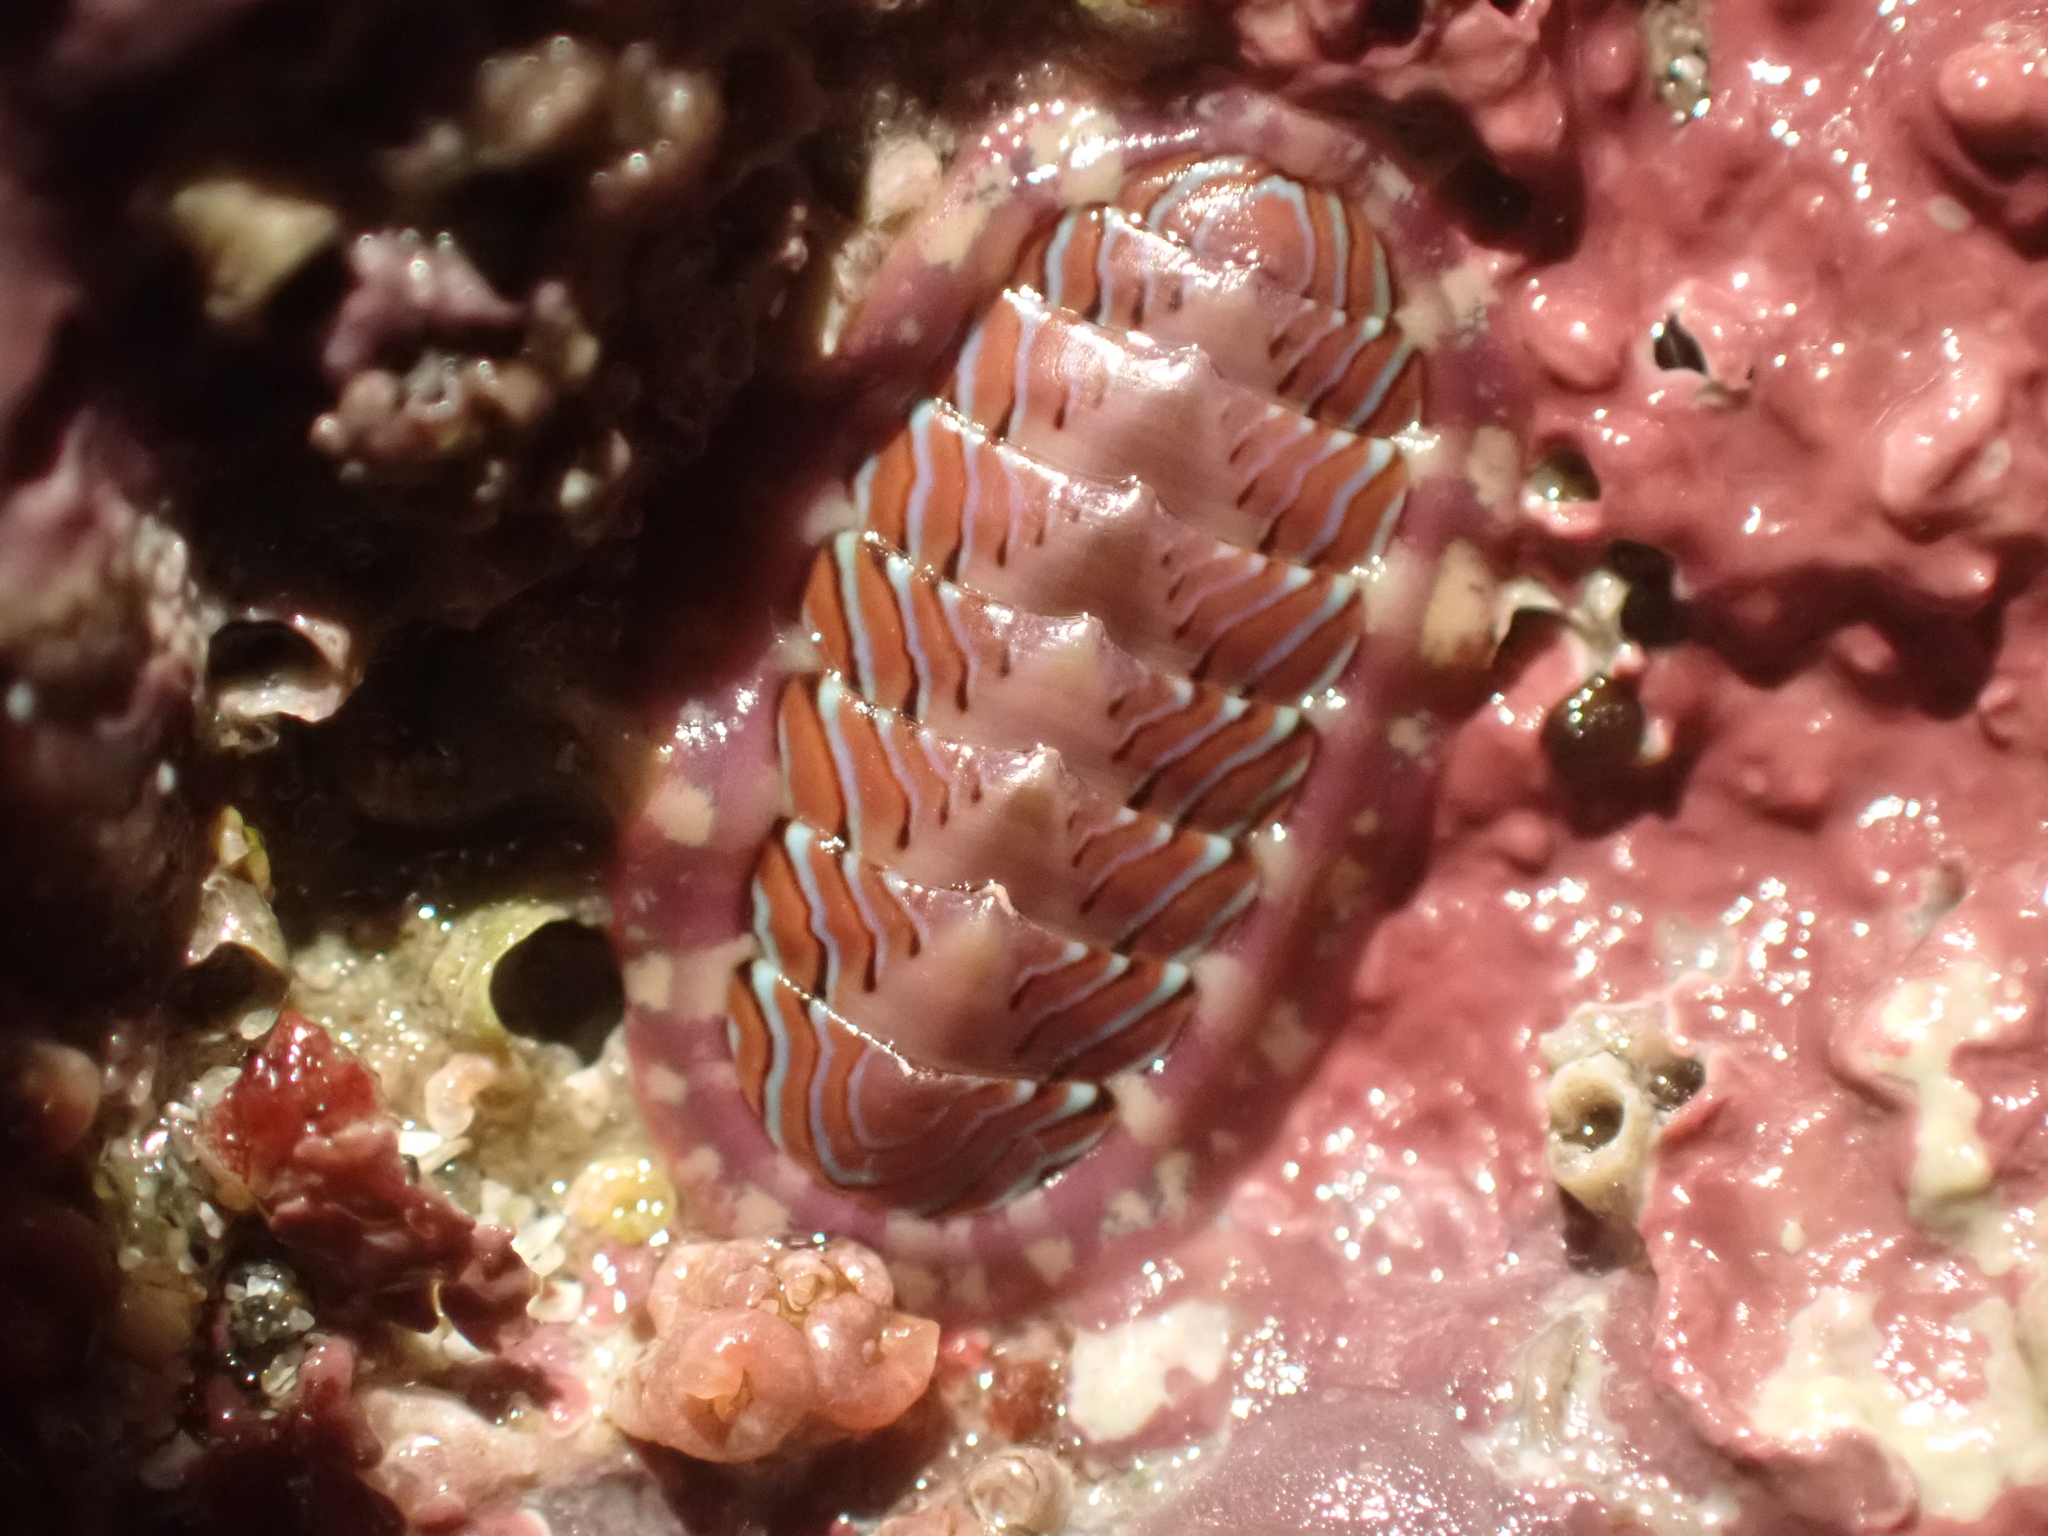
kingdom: Animalia
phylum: Mollusca
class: Polyplacophora
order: Chitonida
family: Tonicellidae
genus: Tonicella
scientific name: Tonicella lineata
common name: Lined chiton
